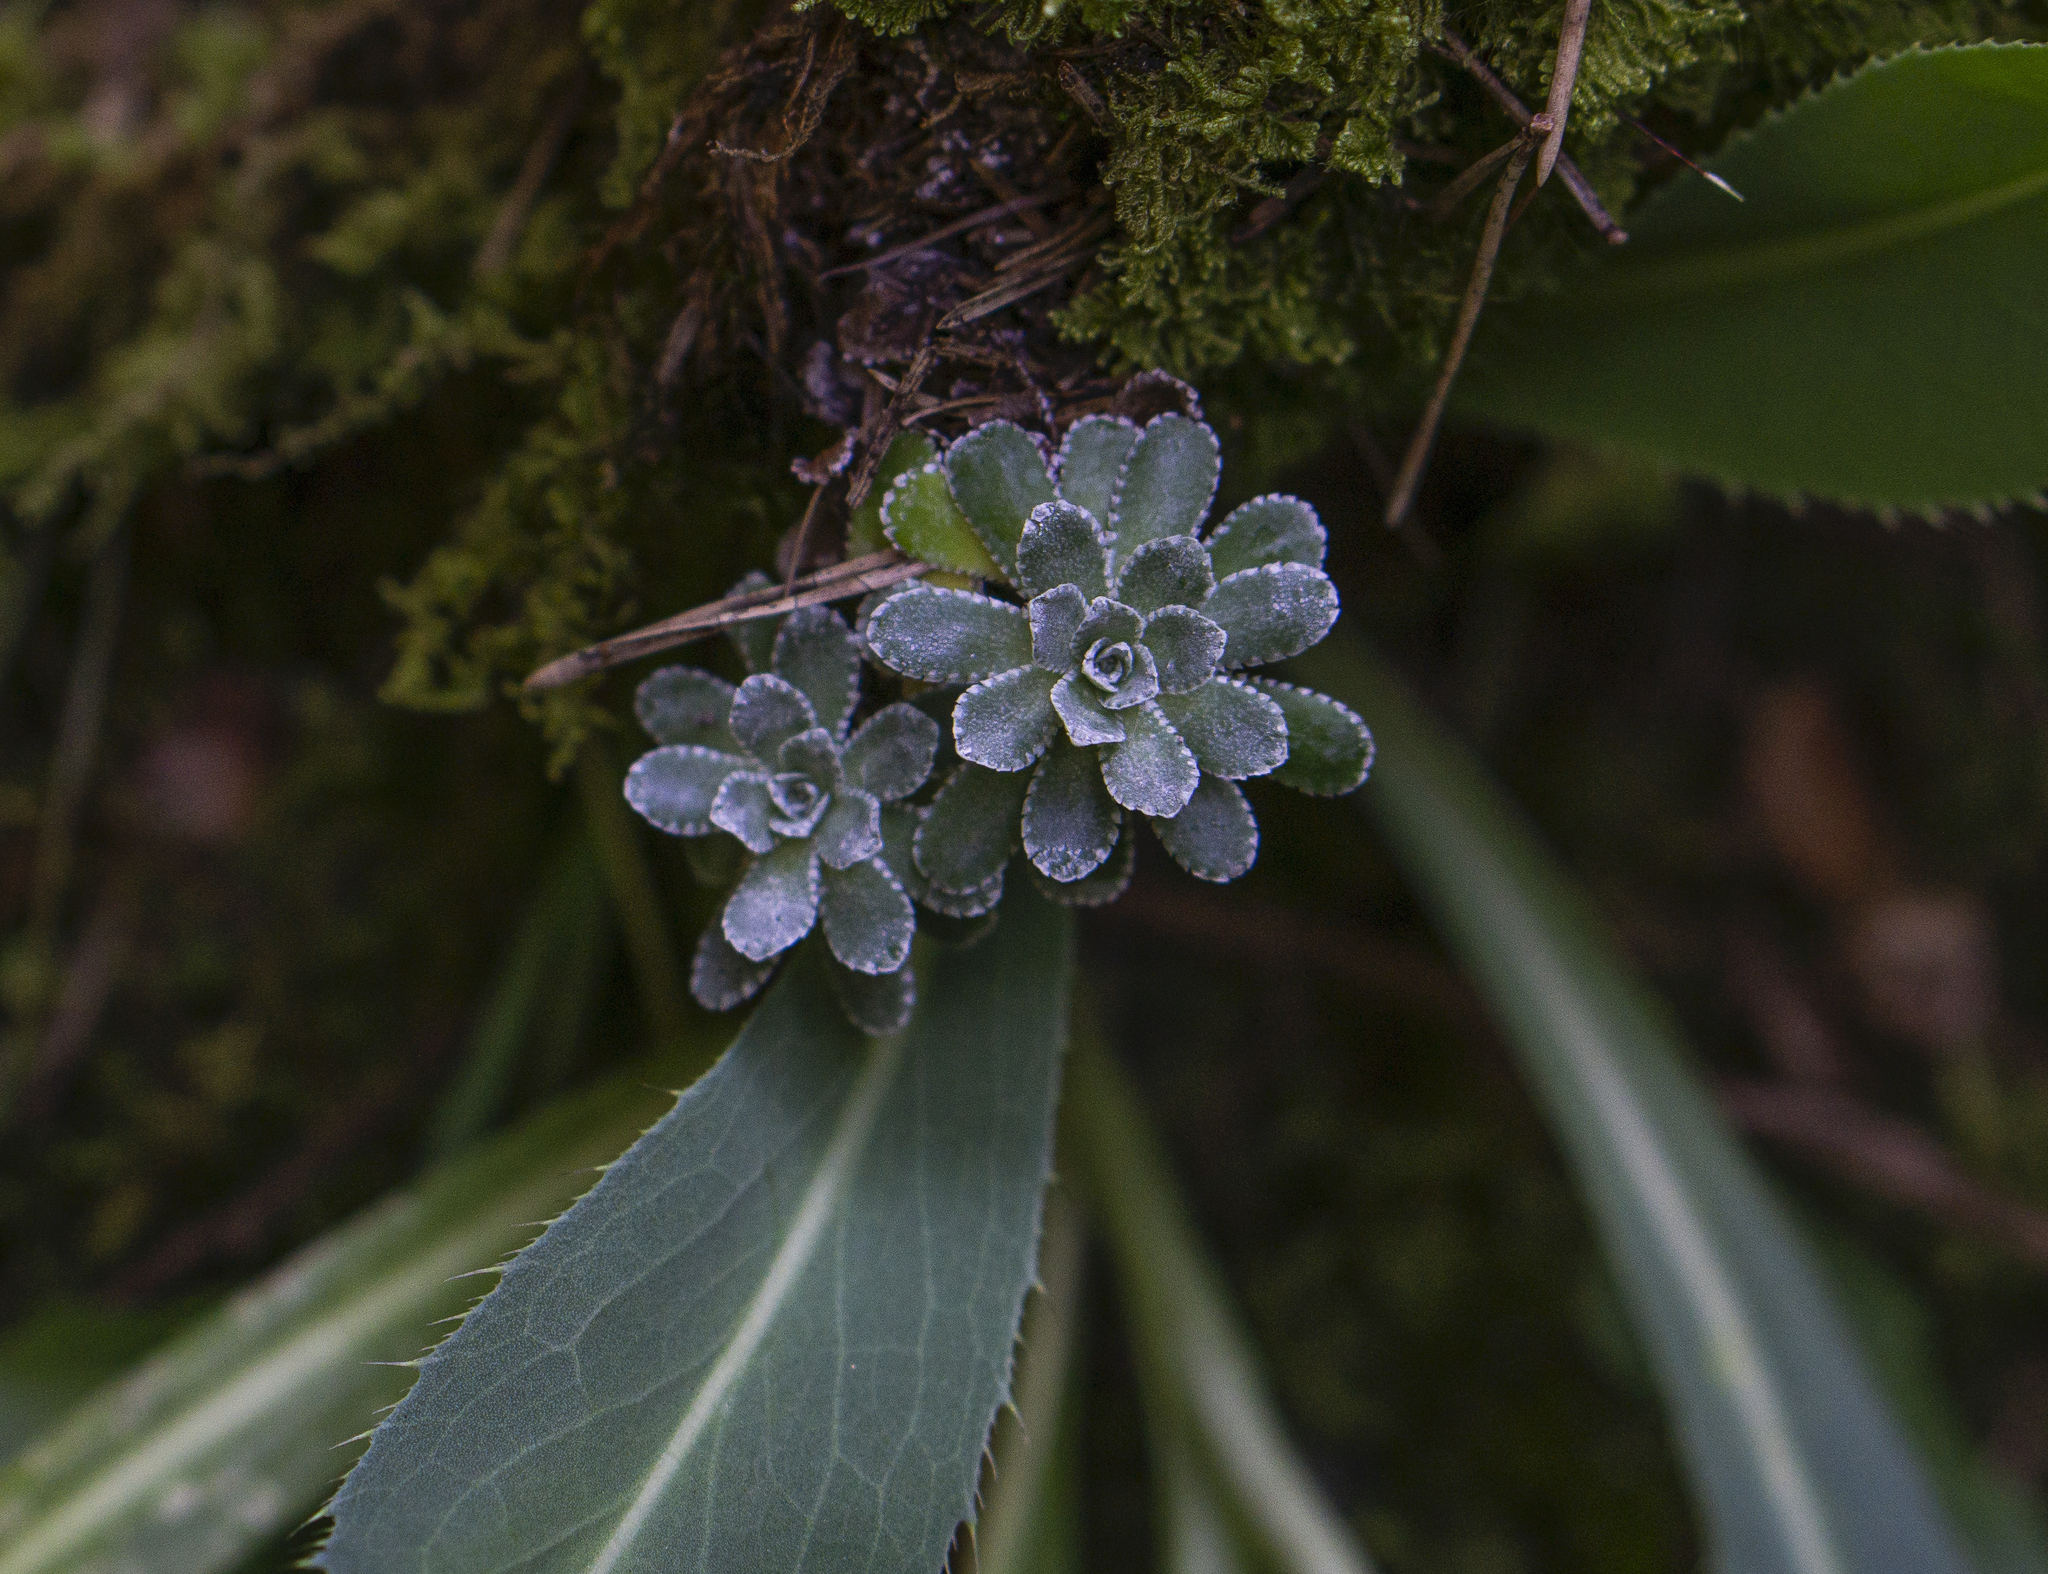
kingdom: Plantae
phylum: Tracheophyta
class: Magnoliopsida
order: Saxifragales
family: Saxifragaceae
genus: Saxifraga
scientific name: Saxifraga paniculata
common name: Livelong saxifrage
